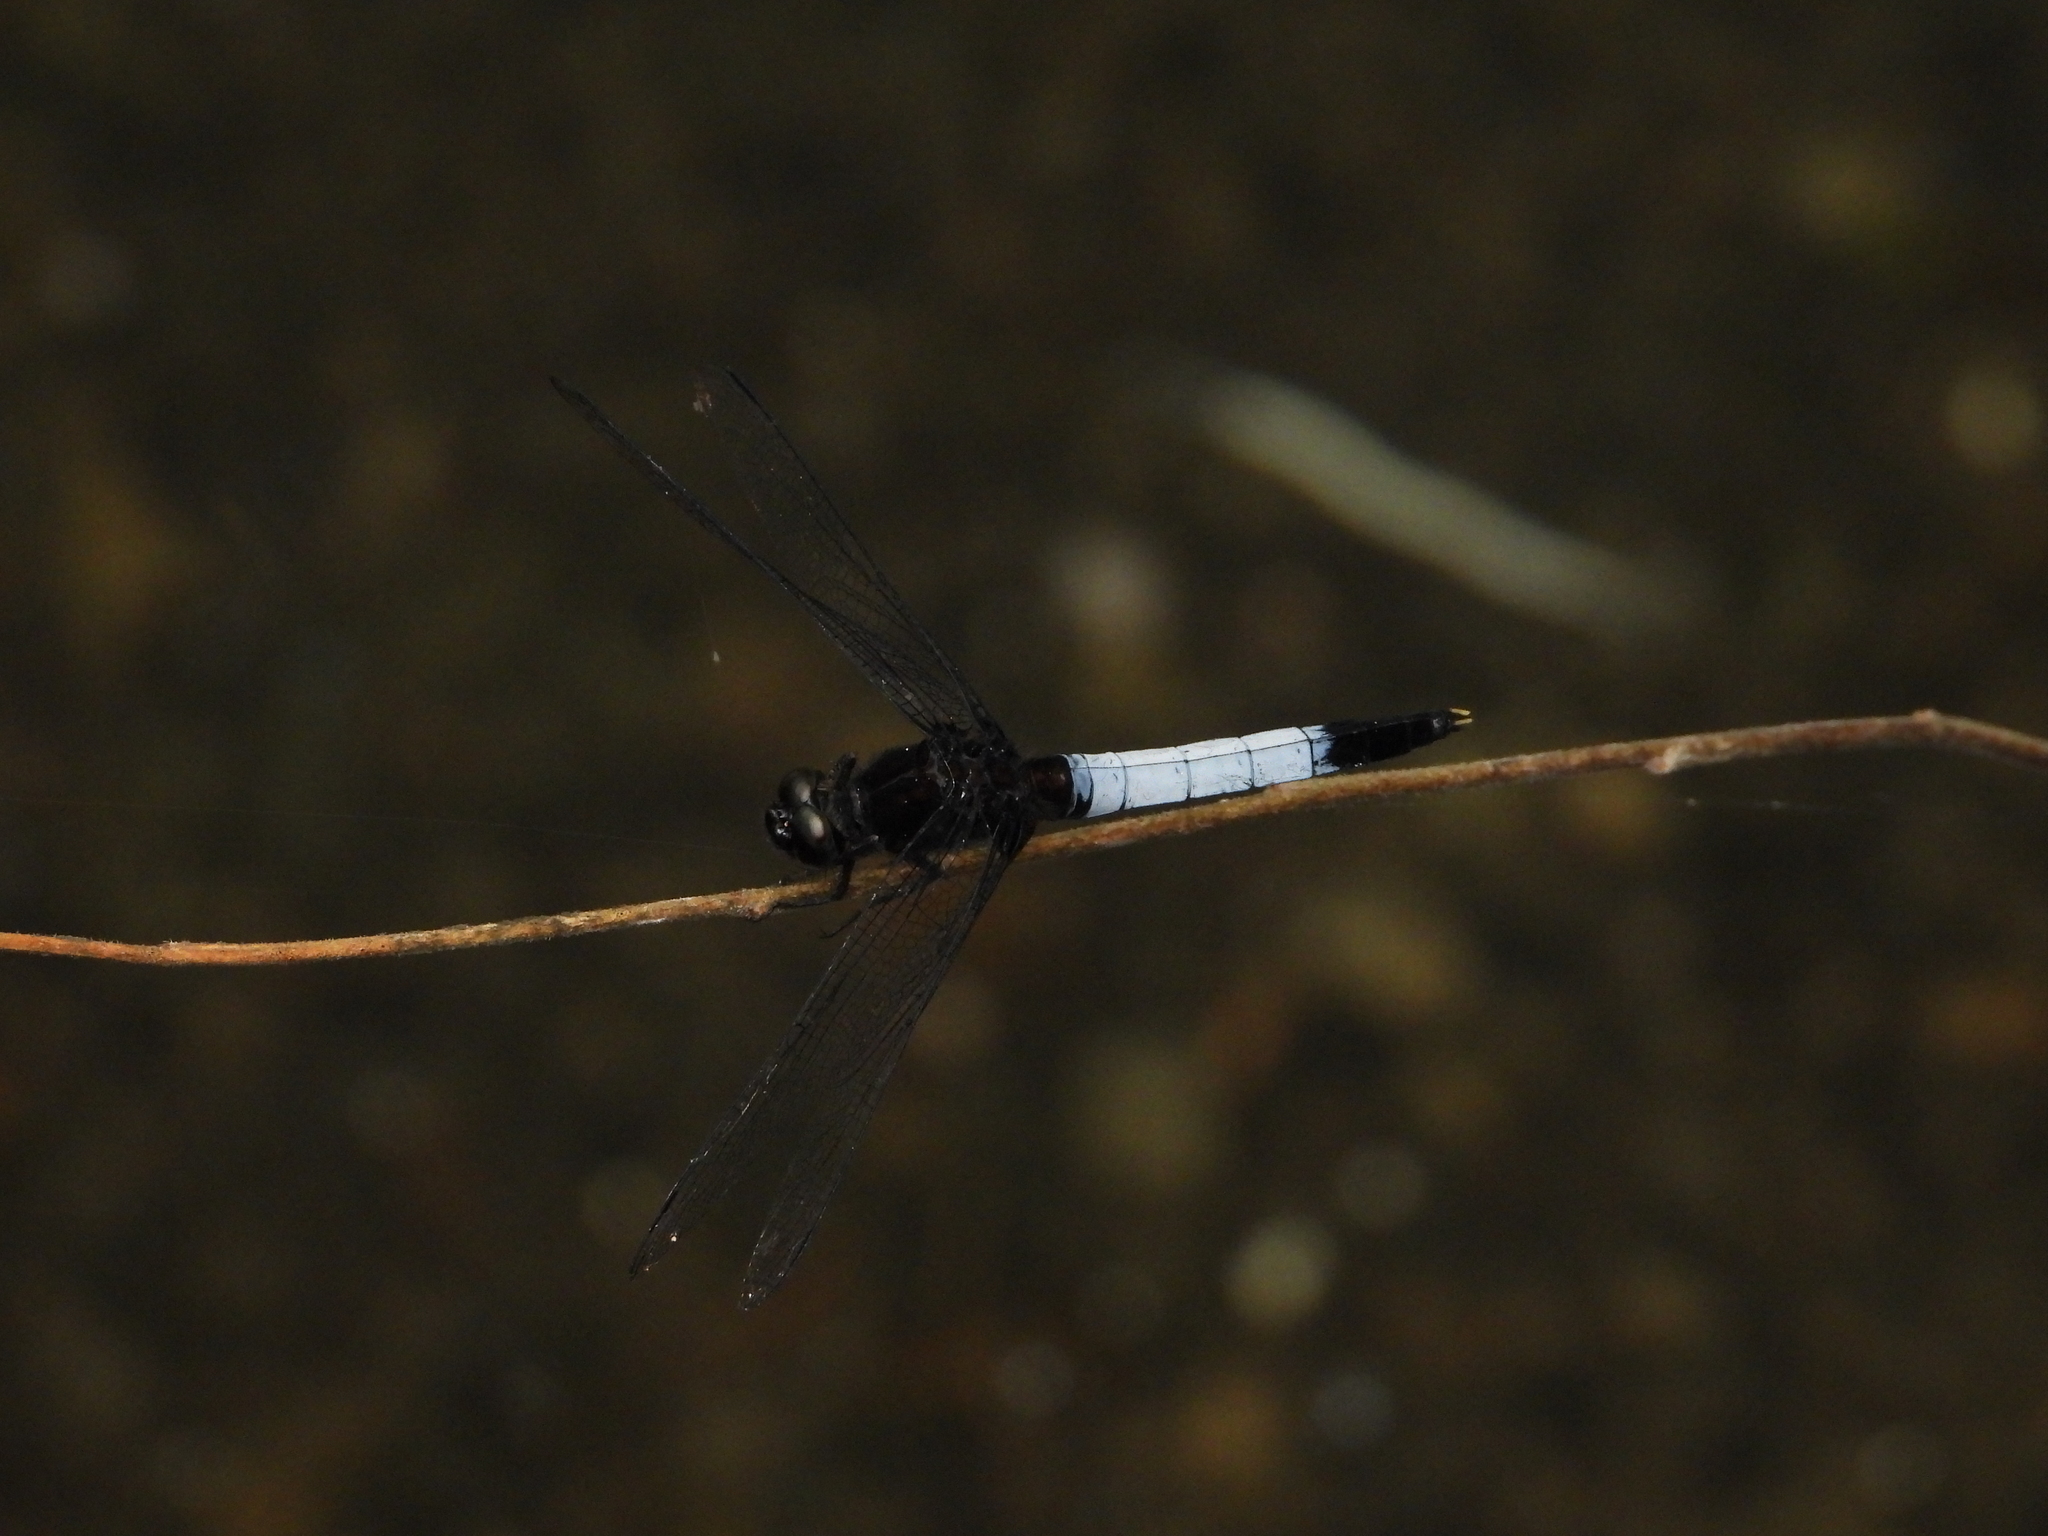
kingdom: Animalia
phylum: Arthropoda
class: Insecta
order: Odonata
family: Libellulidae
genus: Orthetrum
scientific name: Orthetrum triangulare
